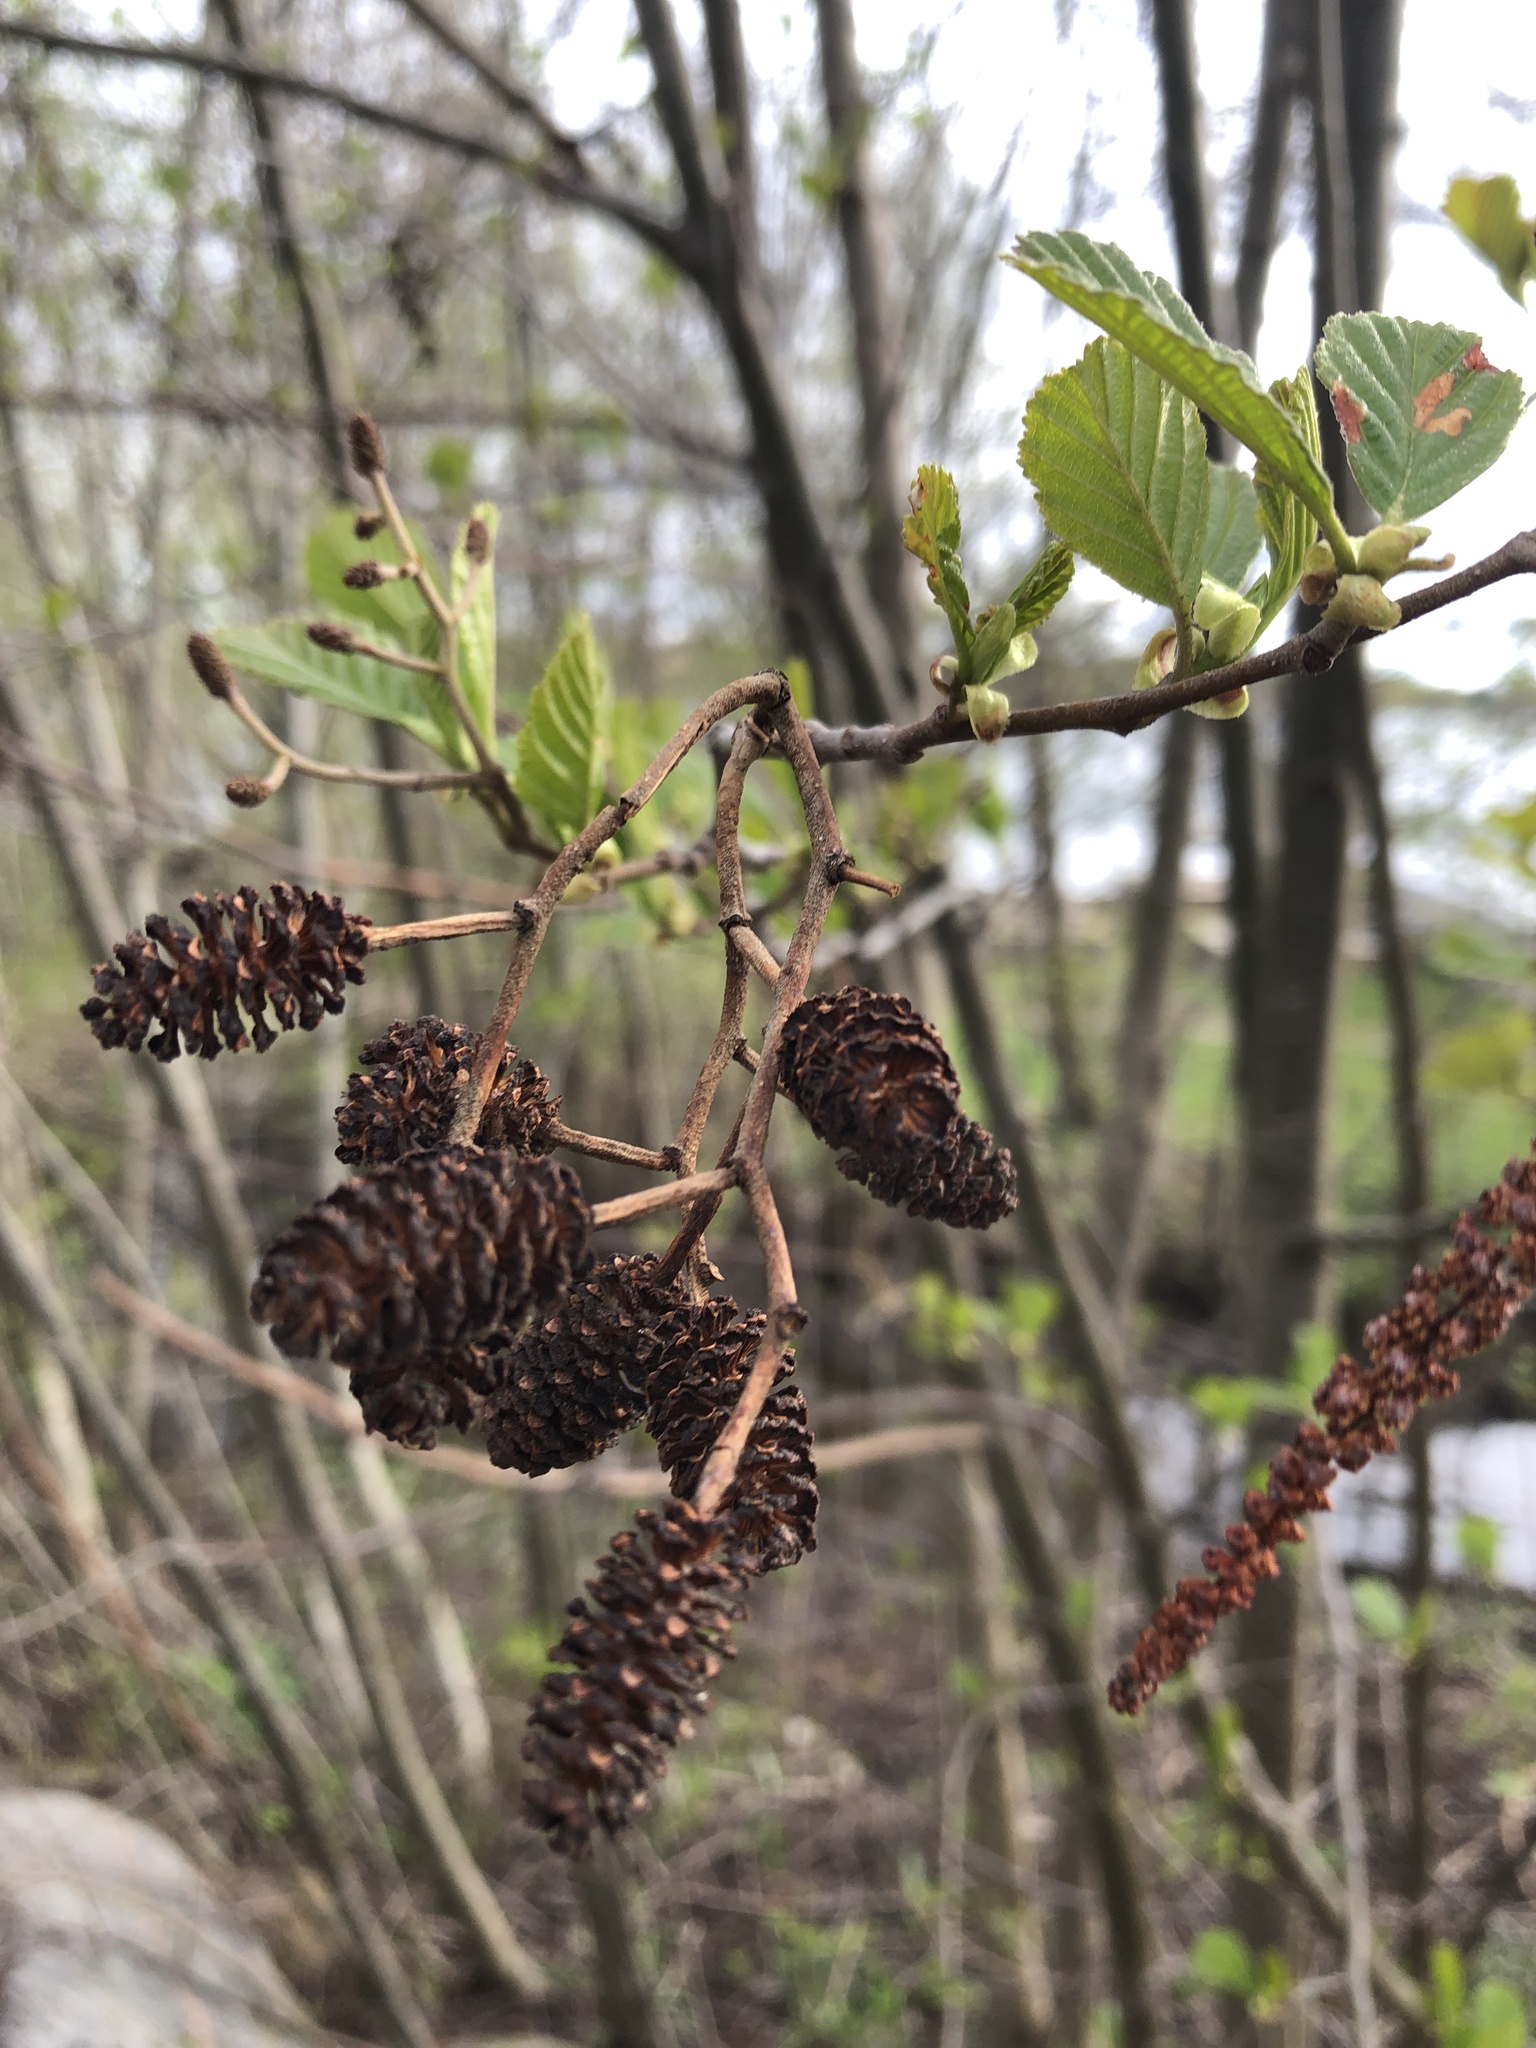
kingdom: Plantae
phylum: Tracheophyta
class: Magnoliopsida
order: Fagales
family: Betulaceae
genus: Alnus
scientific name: Alnus glutinosa
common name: Black alder
